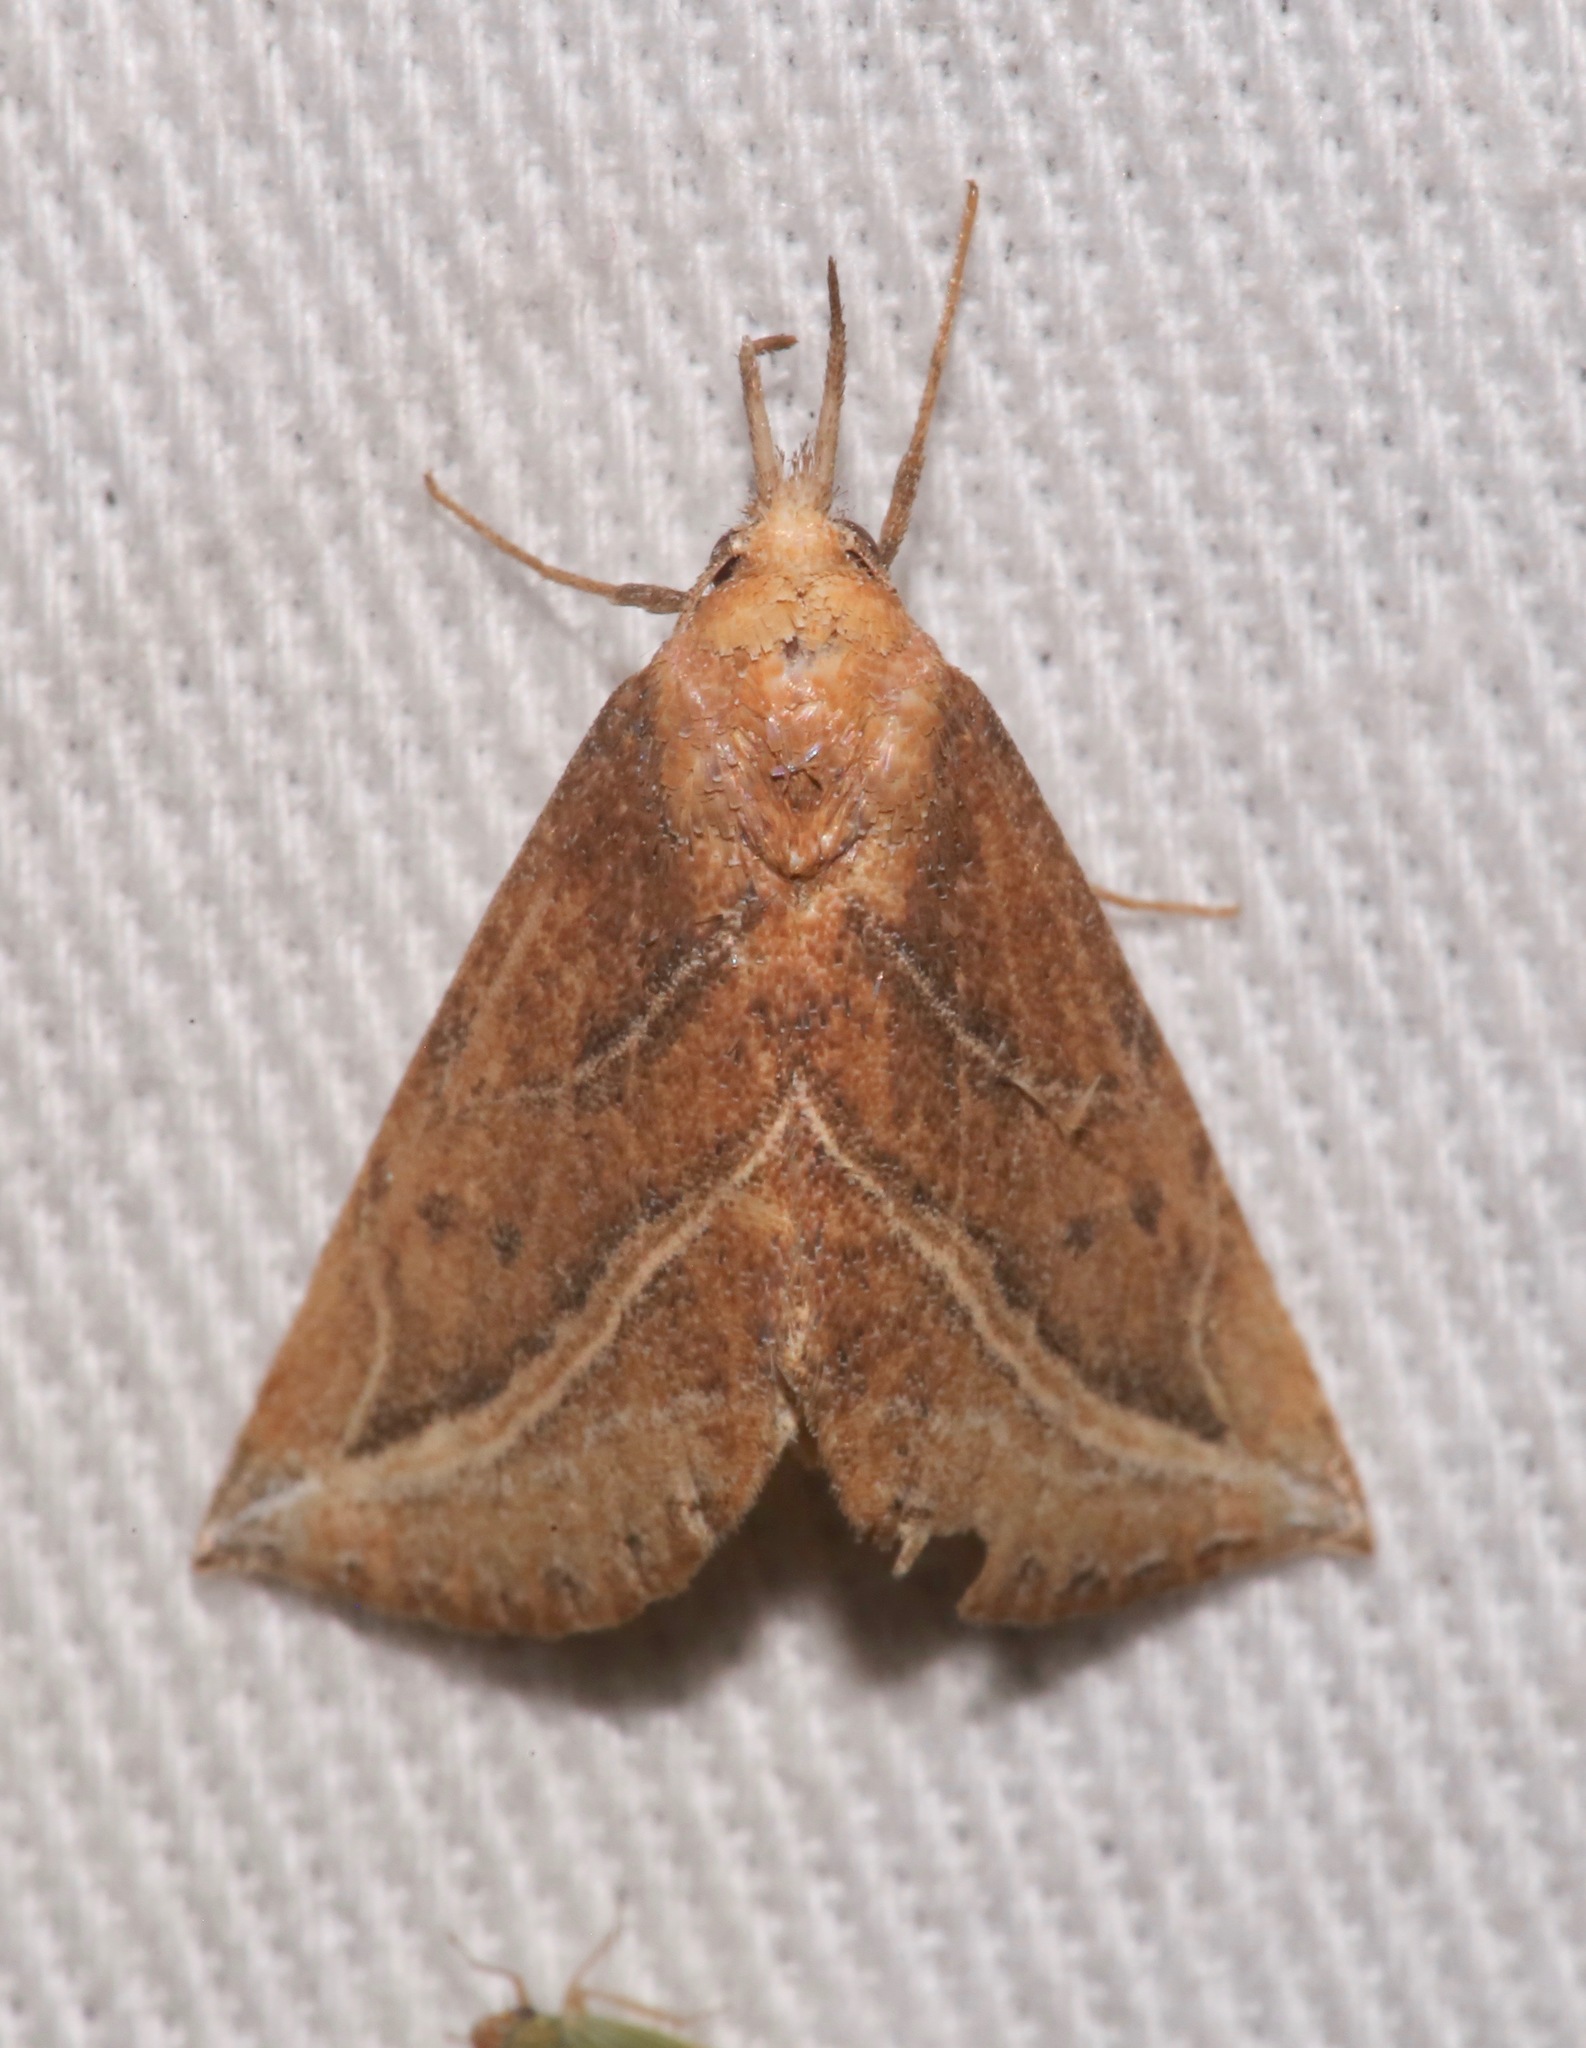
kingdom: Animalia
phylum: Arthropoda
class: Insecta
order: Lepidoptera
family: Erebidae
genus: Phyprosopus
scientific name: Phyprosopus callitrichoides
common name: Curved-lined owlet
